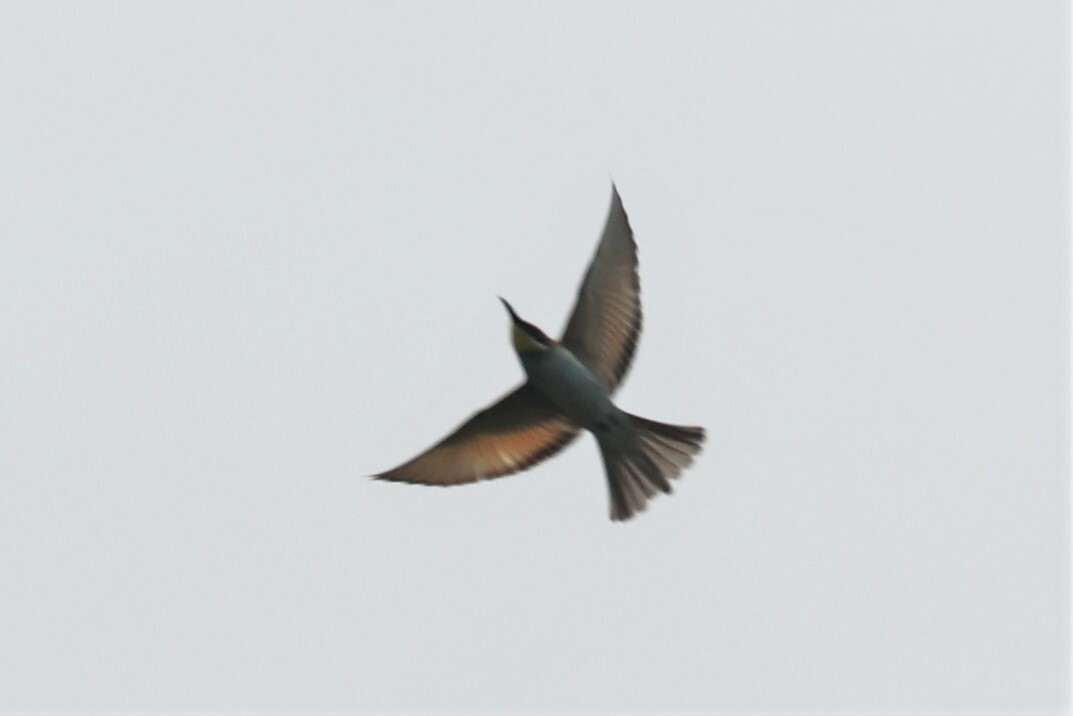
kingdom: Animalia
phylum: Chordata
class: Aves
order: Coraciiformes
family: Meropidae
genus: Merops
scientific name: Merops apiaster
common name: European bee-eater
